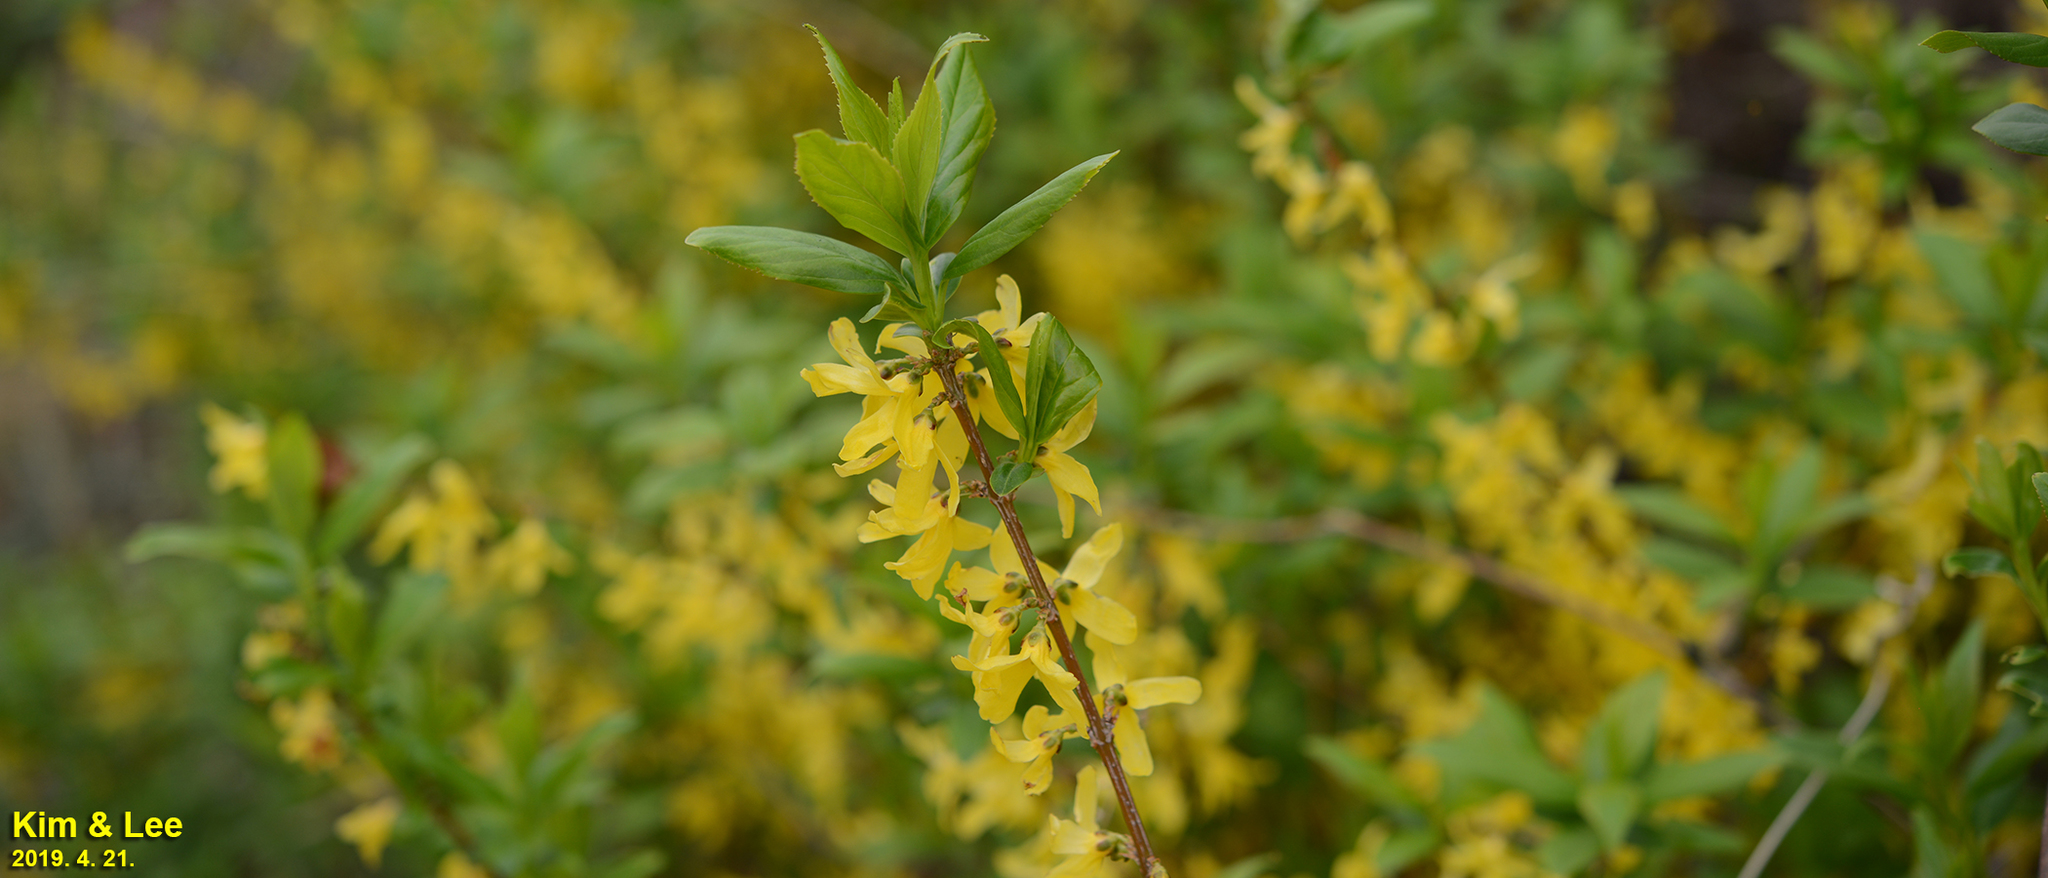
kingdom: Plantae
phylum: Tracheophyta
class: Magnoliopsida
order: Lamiales
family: Oleaceae
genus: Forsythia
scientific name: Forsythia koreana
